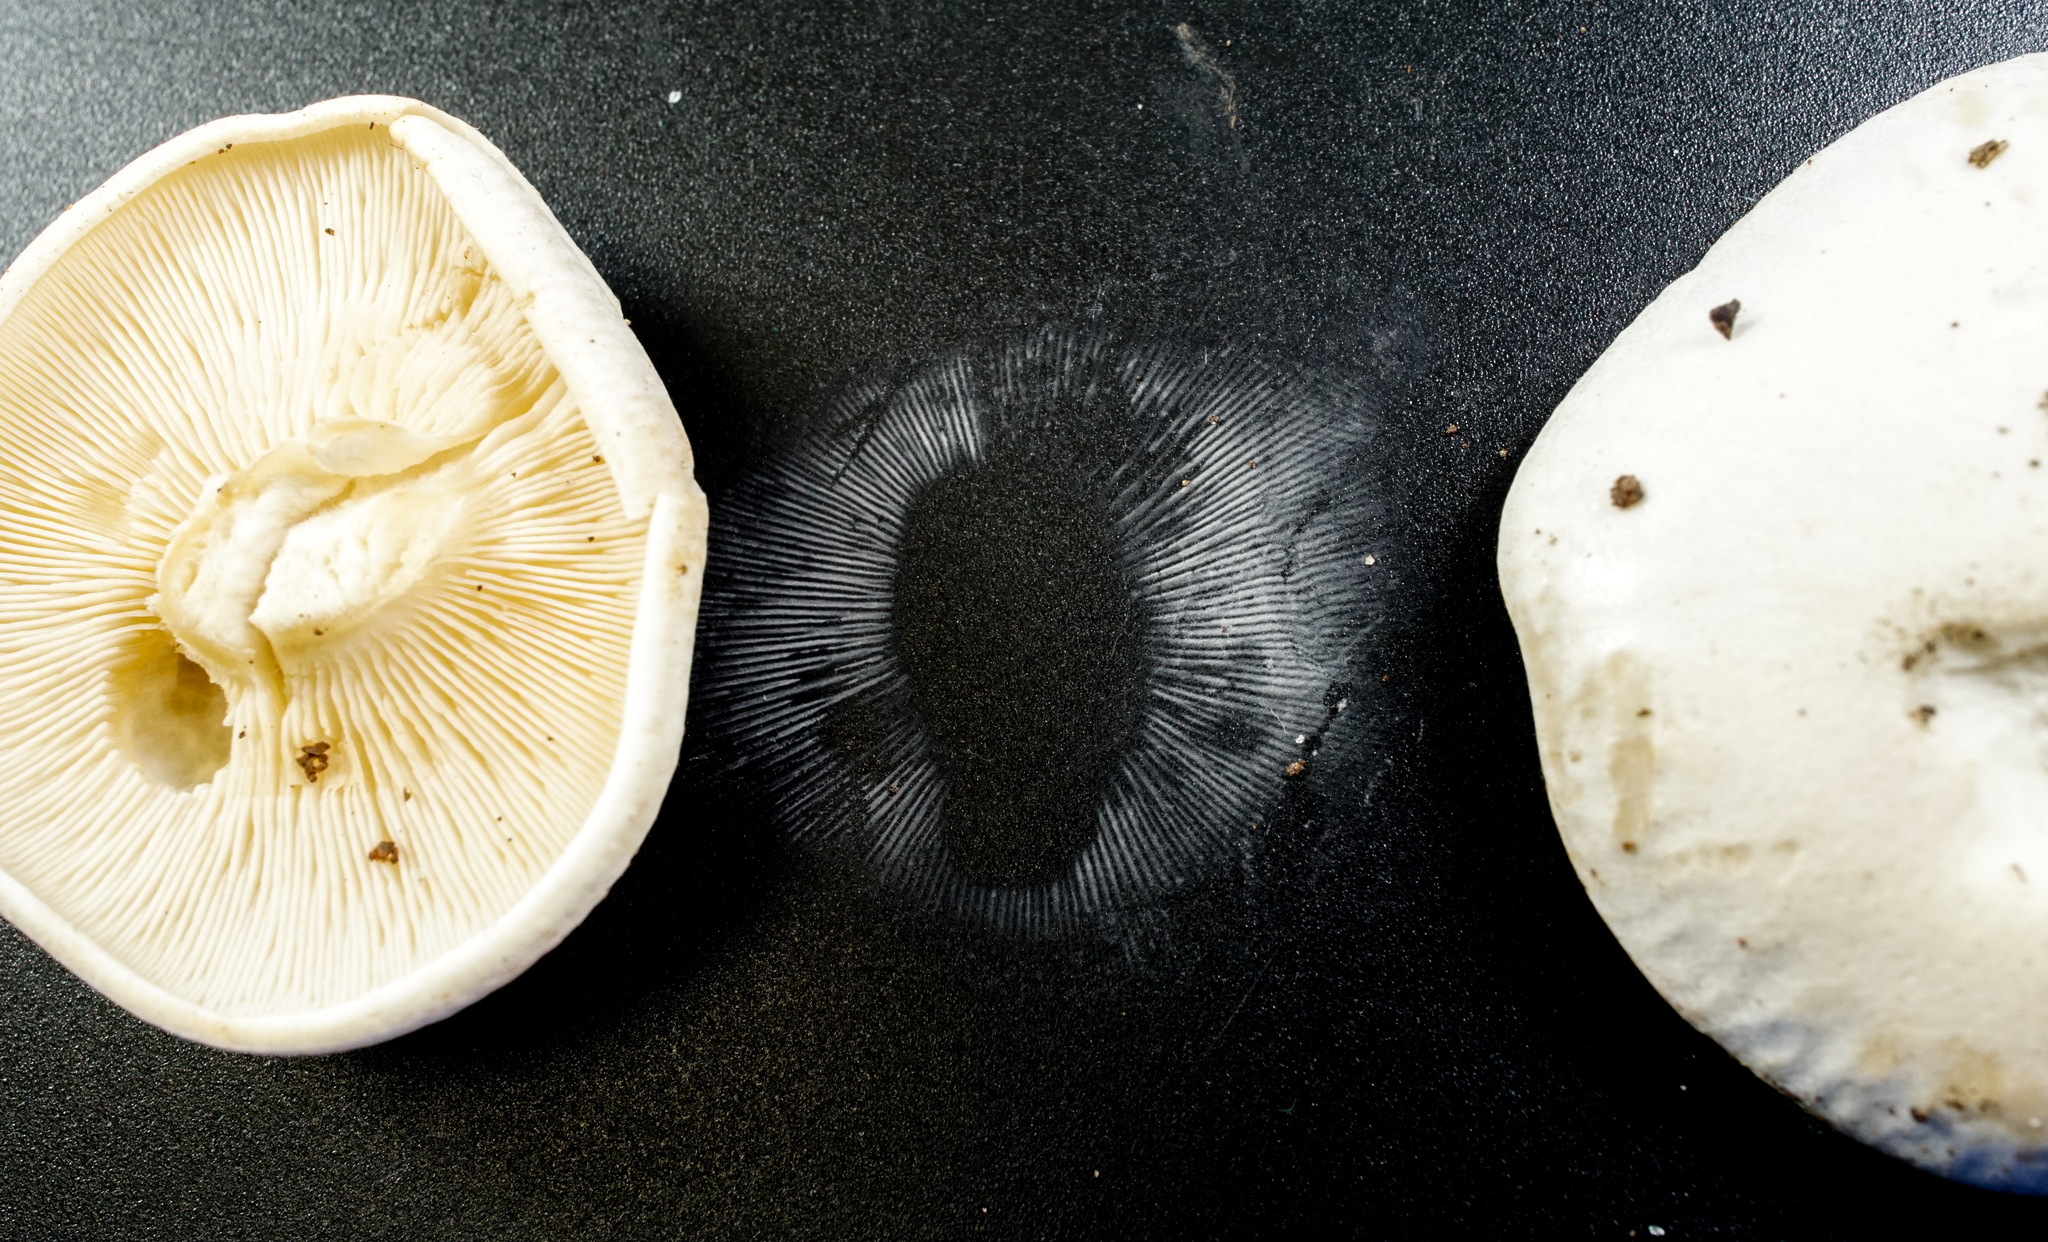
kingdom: Fungi
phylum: Basidiomycota
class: Agaricomycetes
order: Agaricales
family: Tricholomataceae
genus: Lepista
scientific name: Lepista subconnexa
